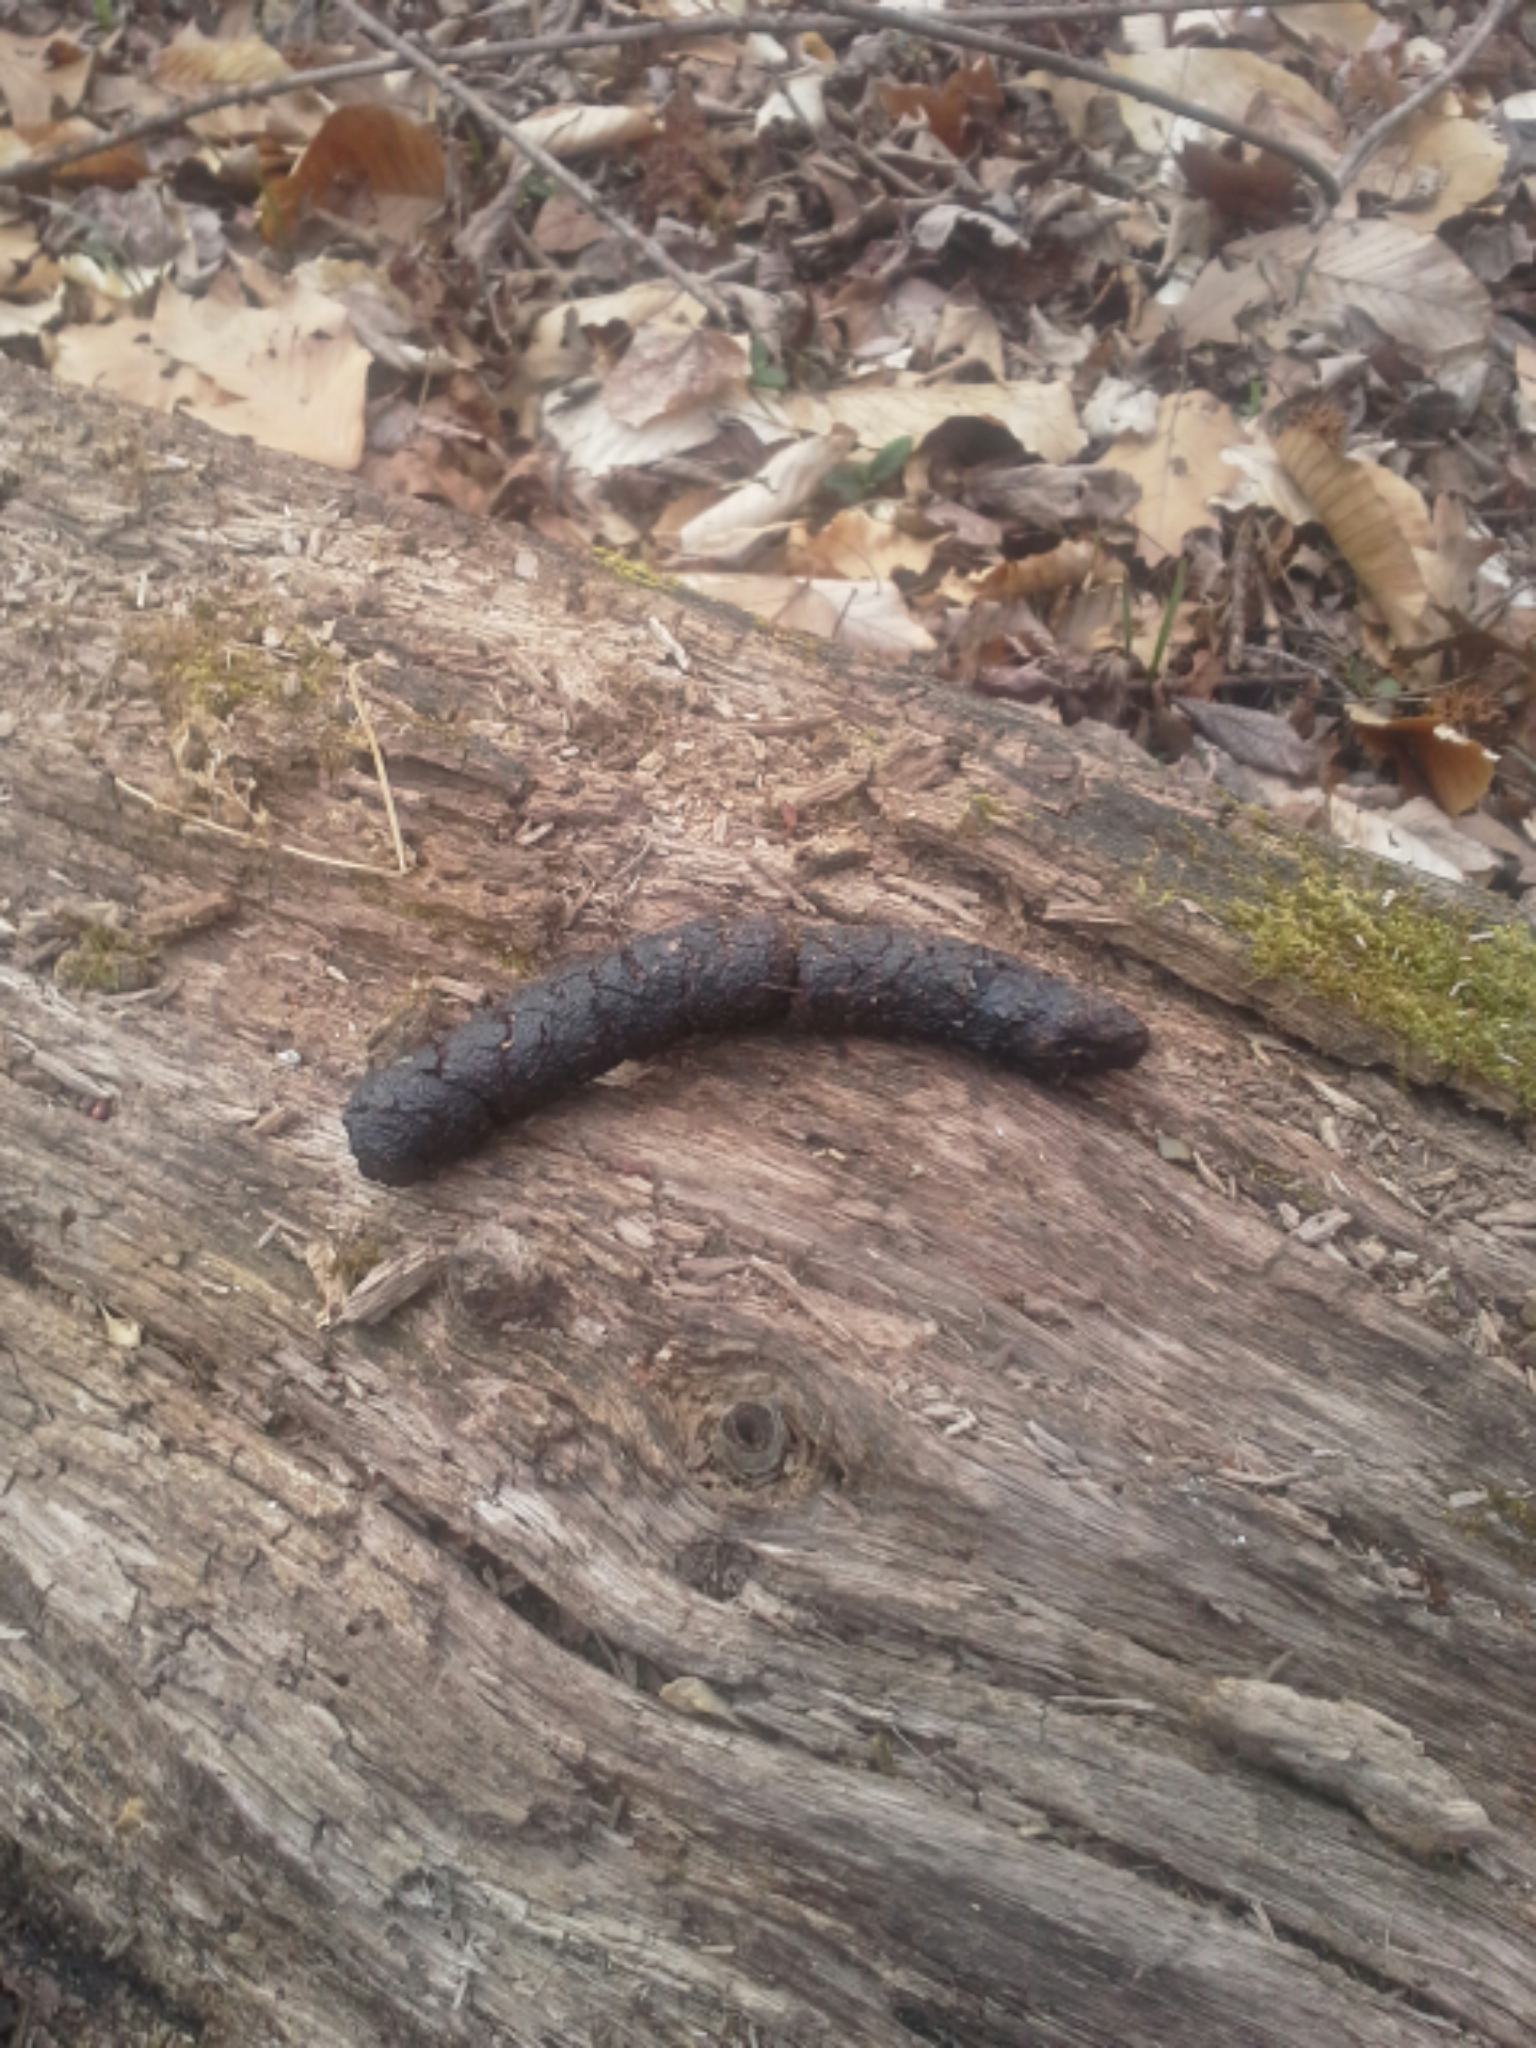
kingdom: Animalia
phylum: Chordata
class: Mammalia
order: Carnivora
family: Canidae
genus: Vulpes
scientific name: Vulpes vulpes
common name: Red fox
